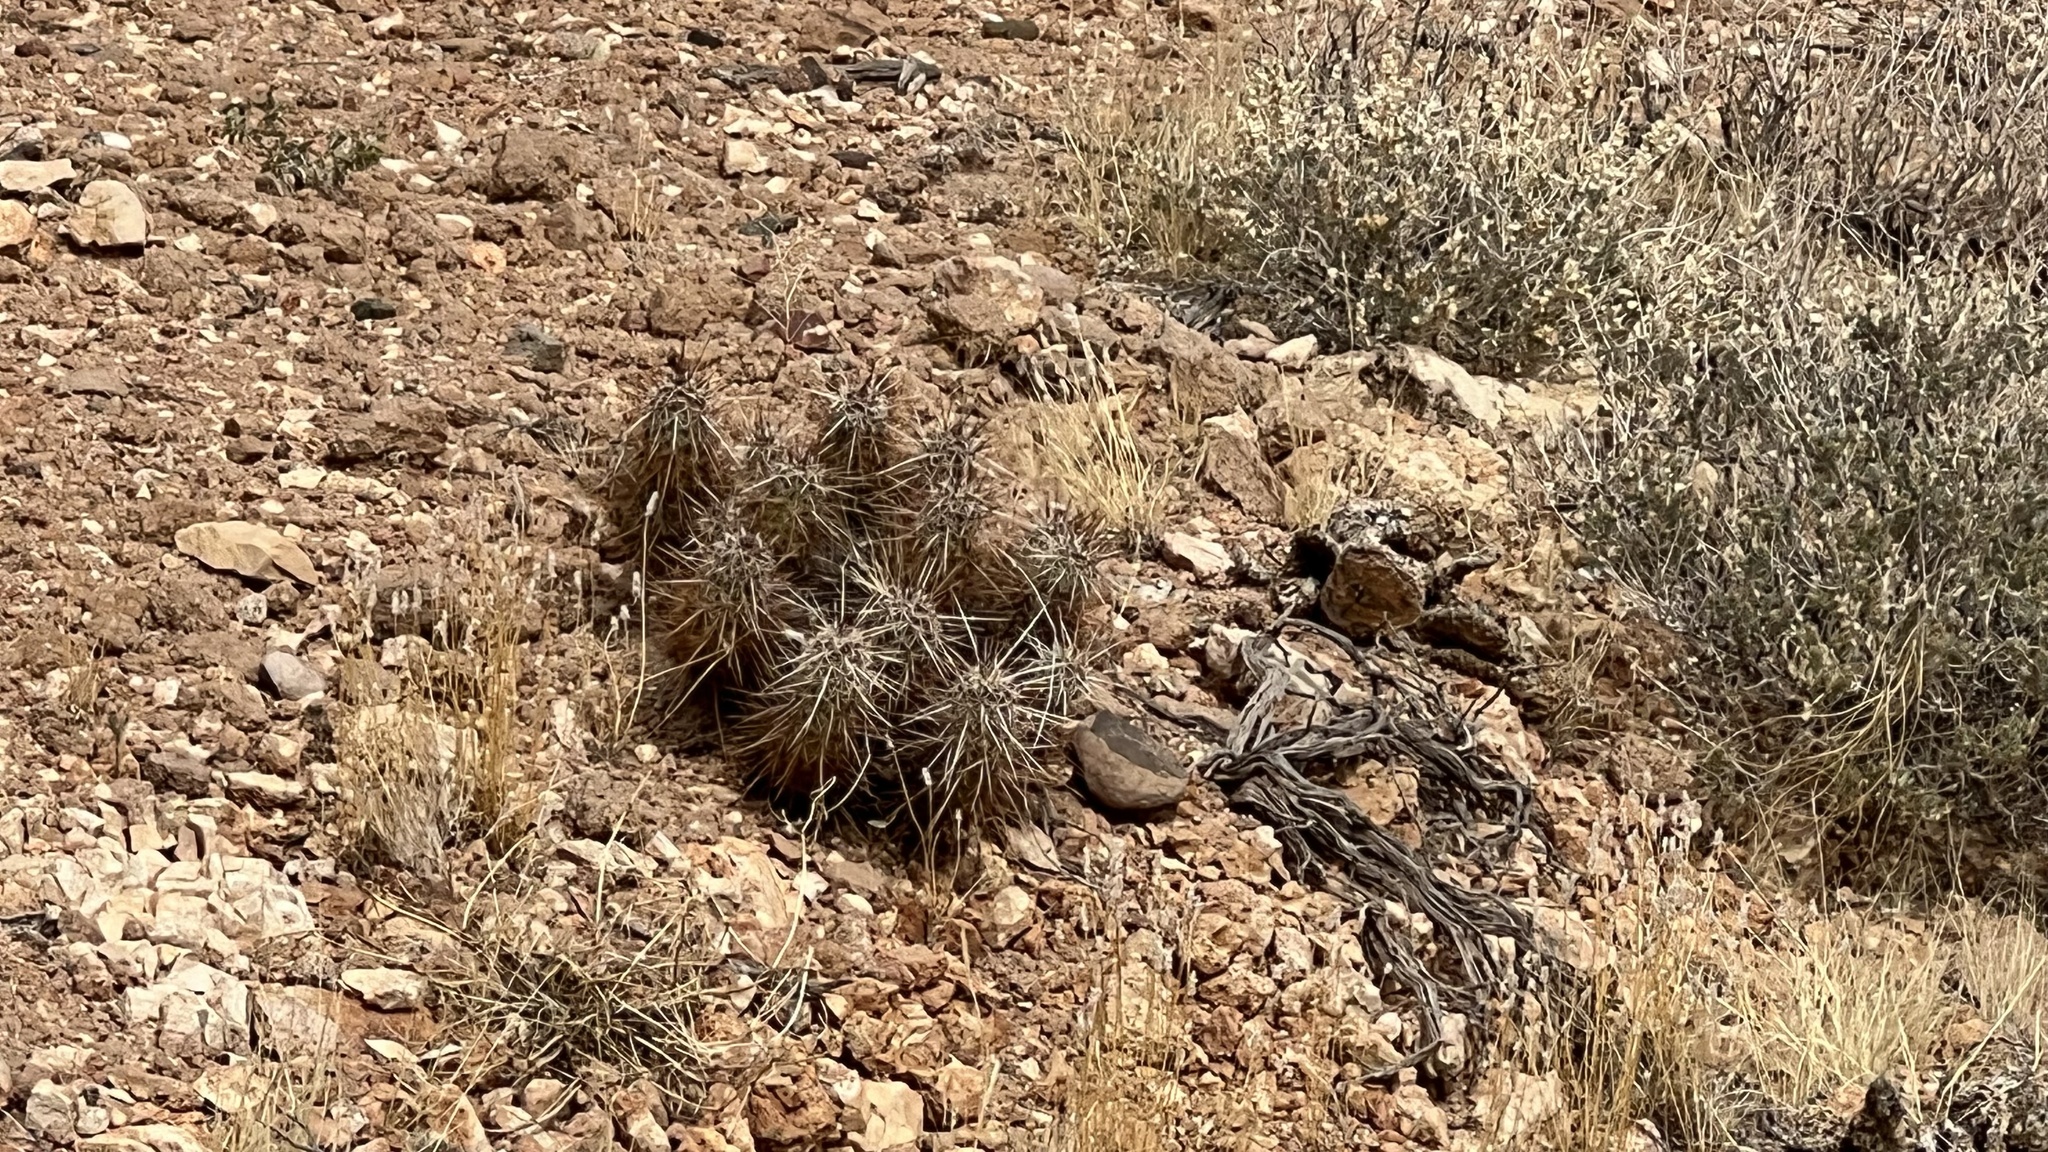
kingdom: Plantae
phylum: Tracheophyta
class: Magnoliopsida
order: Caryophyllales
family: Cactaceae
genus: Echinocereus
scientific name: Echinocereus engelmannii
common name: Engelmann's hedgehog cactus
